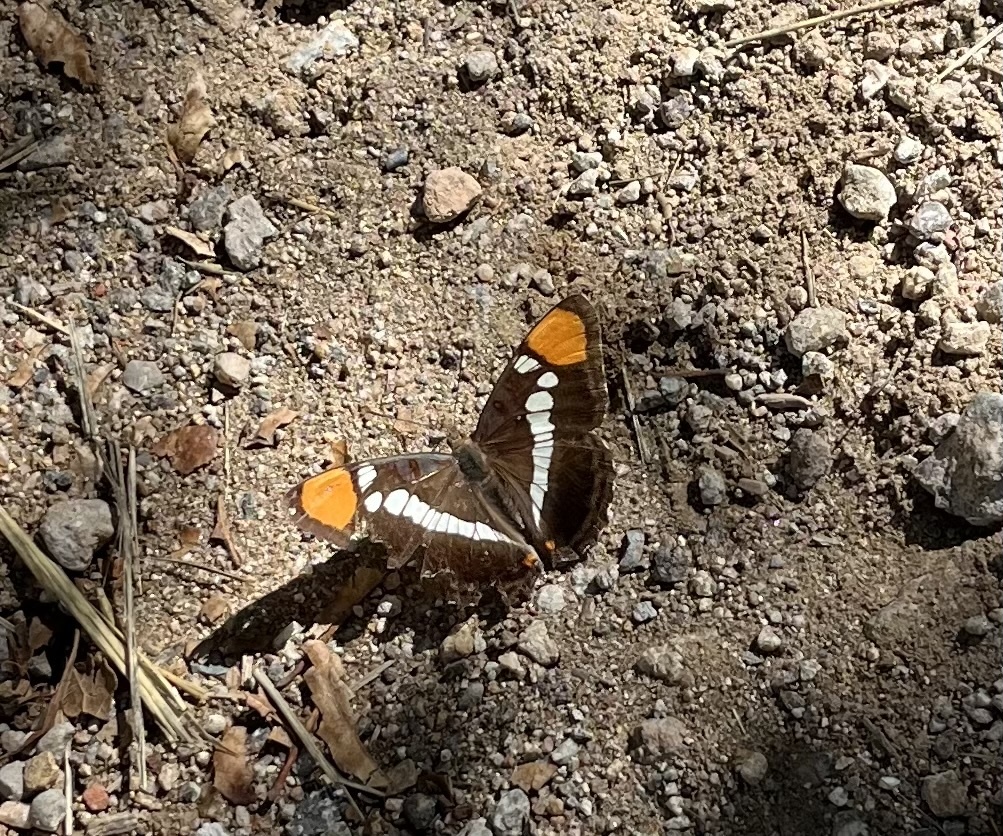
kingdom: Animalia
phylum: Arthropoda
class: Insecta
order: Lepidoptera
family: Nymphalidae
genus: Limenitis
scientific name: Limenitis bredowii
